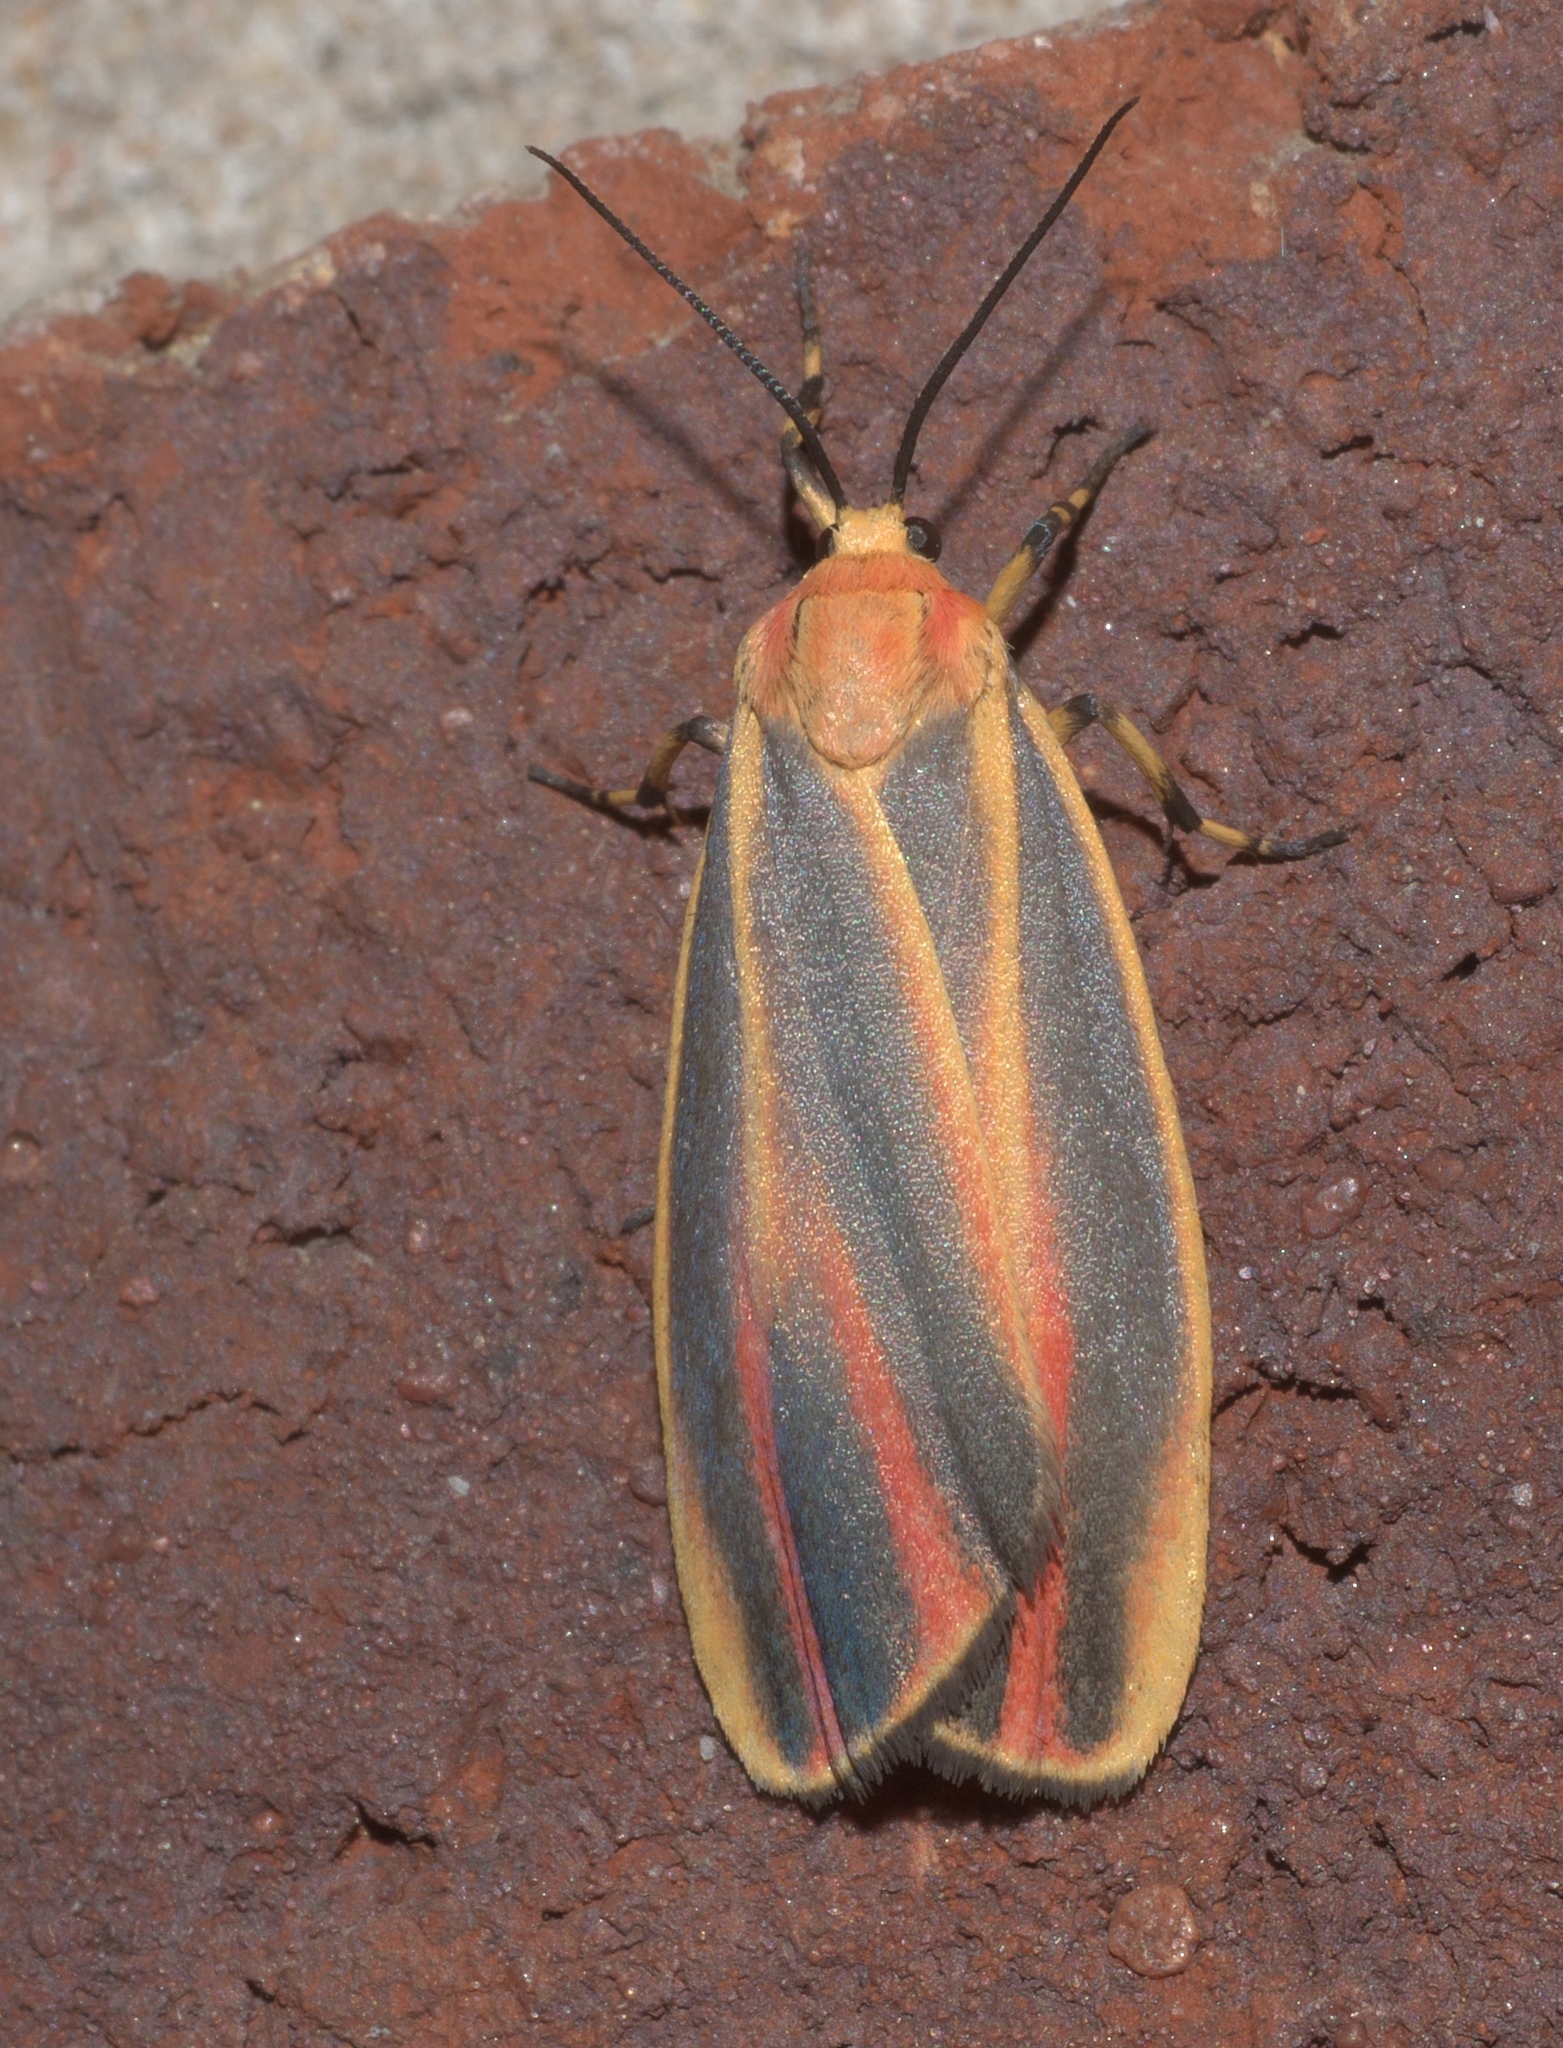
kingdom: Animalia
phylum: Arthropoda
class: Insecta
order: Lepidoptera
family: Erebidae
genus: Hypoprepia
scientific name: Hypoprepia fucosa
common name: Painted lichen moth
